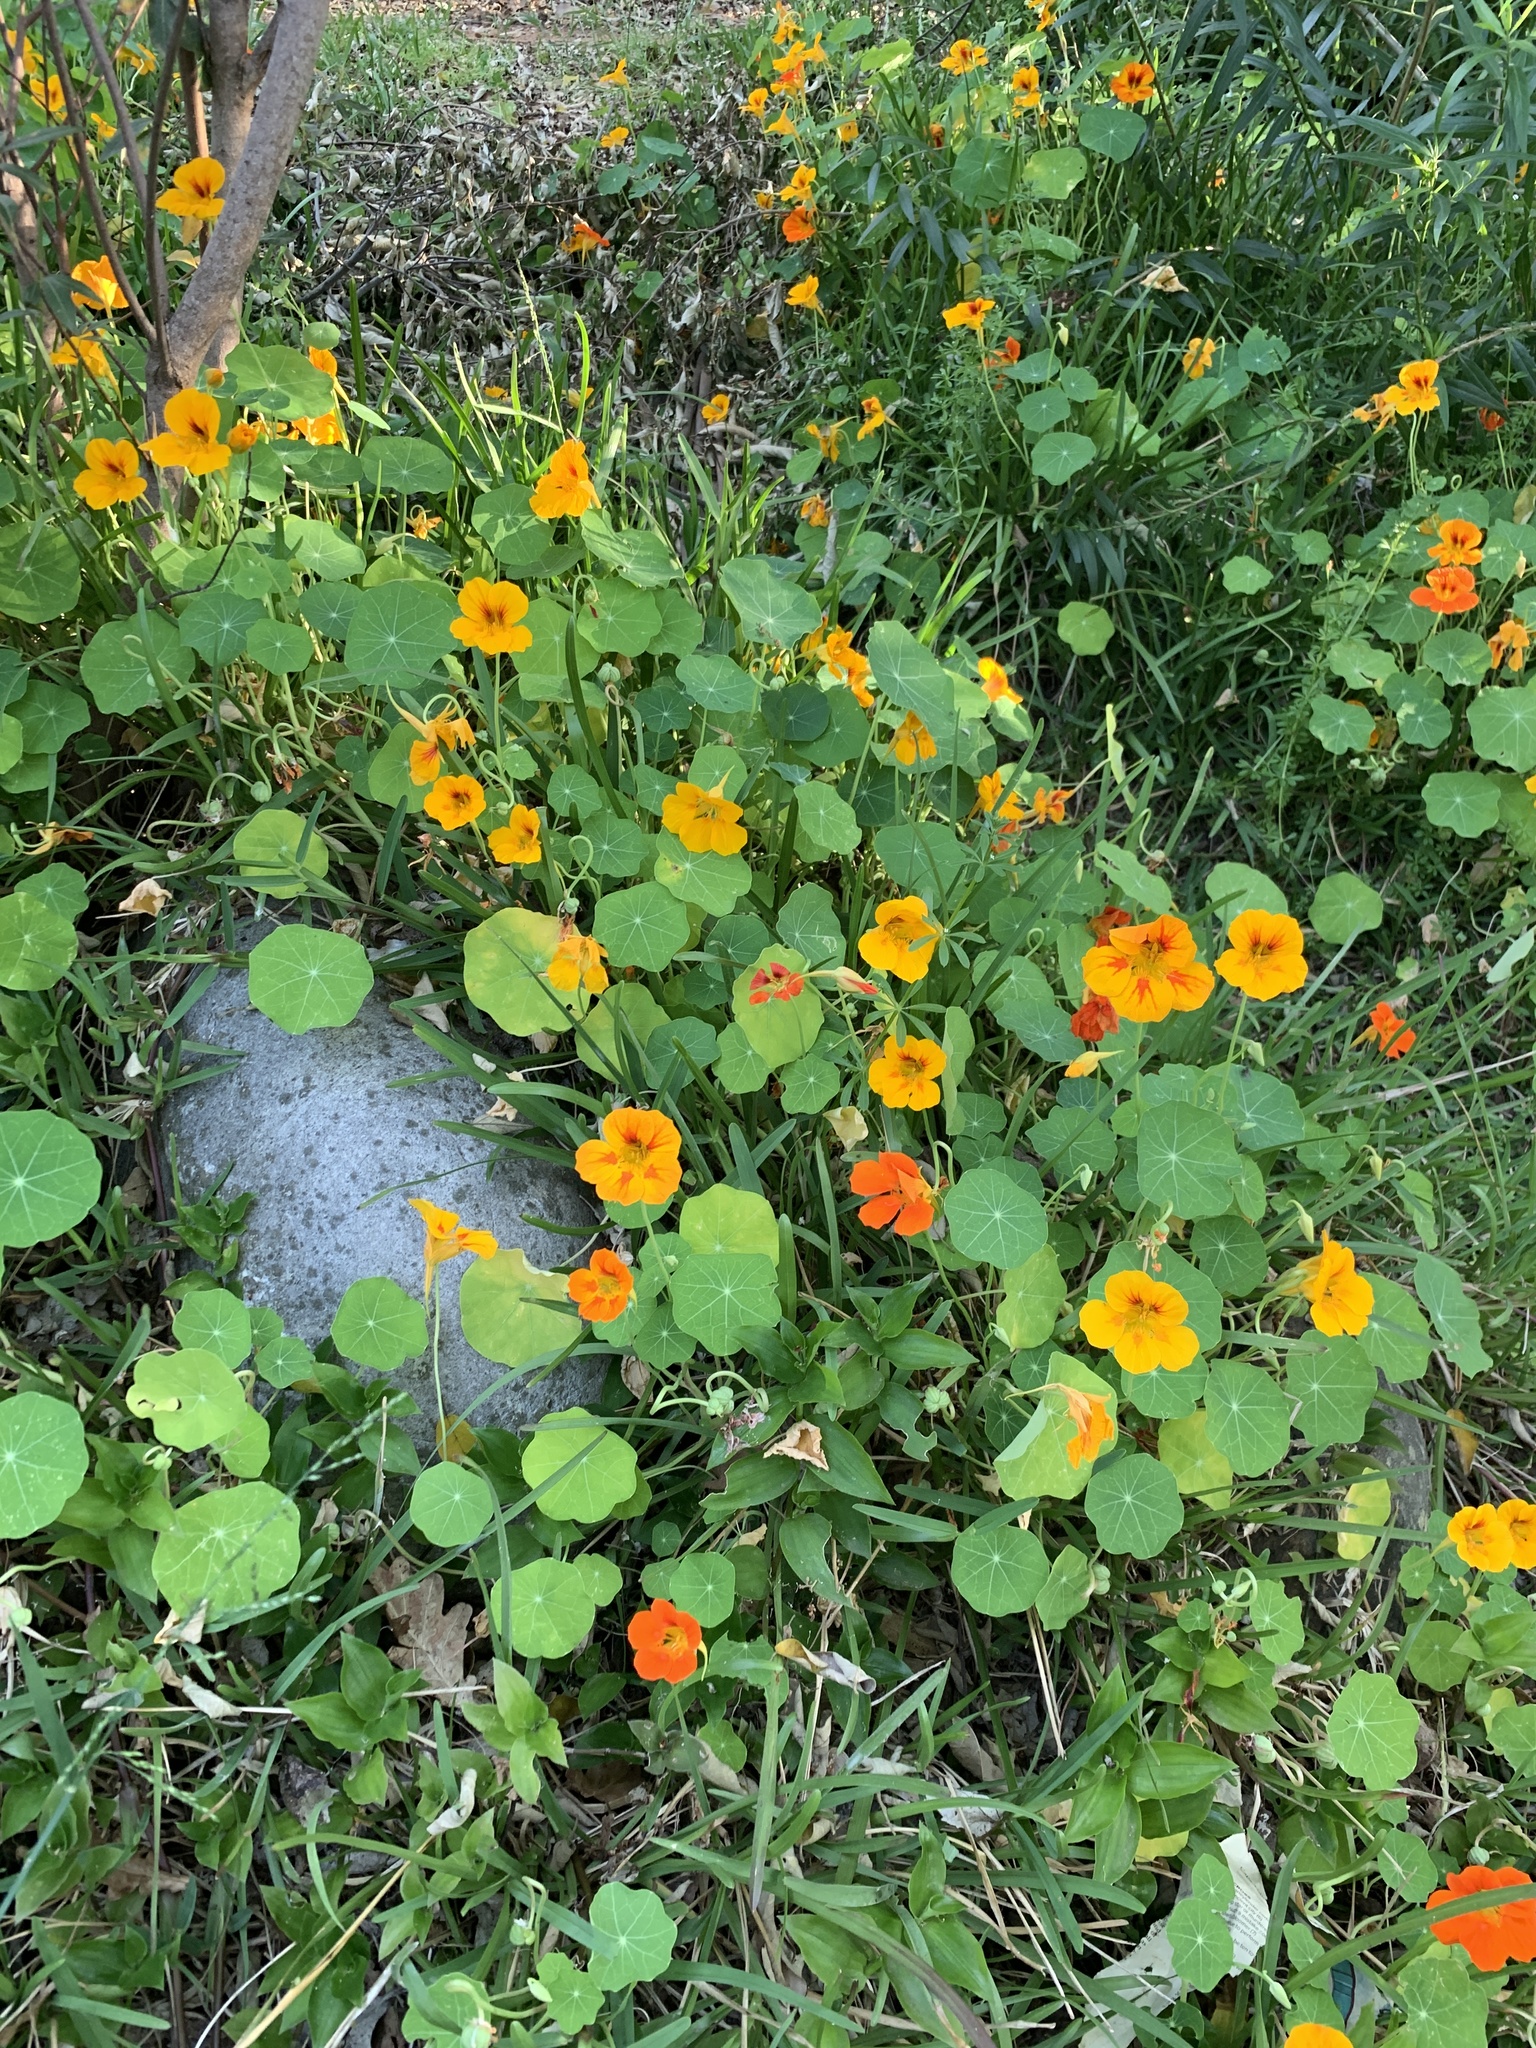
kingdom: Plantae
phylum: Tracheophyta
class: Magnoliopsida
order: Brassicales
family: Tropaeolaceae
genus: Tropaeolum
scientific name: Tropaeolum majus
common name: Nasturtium
